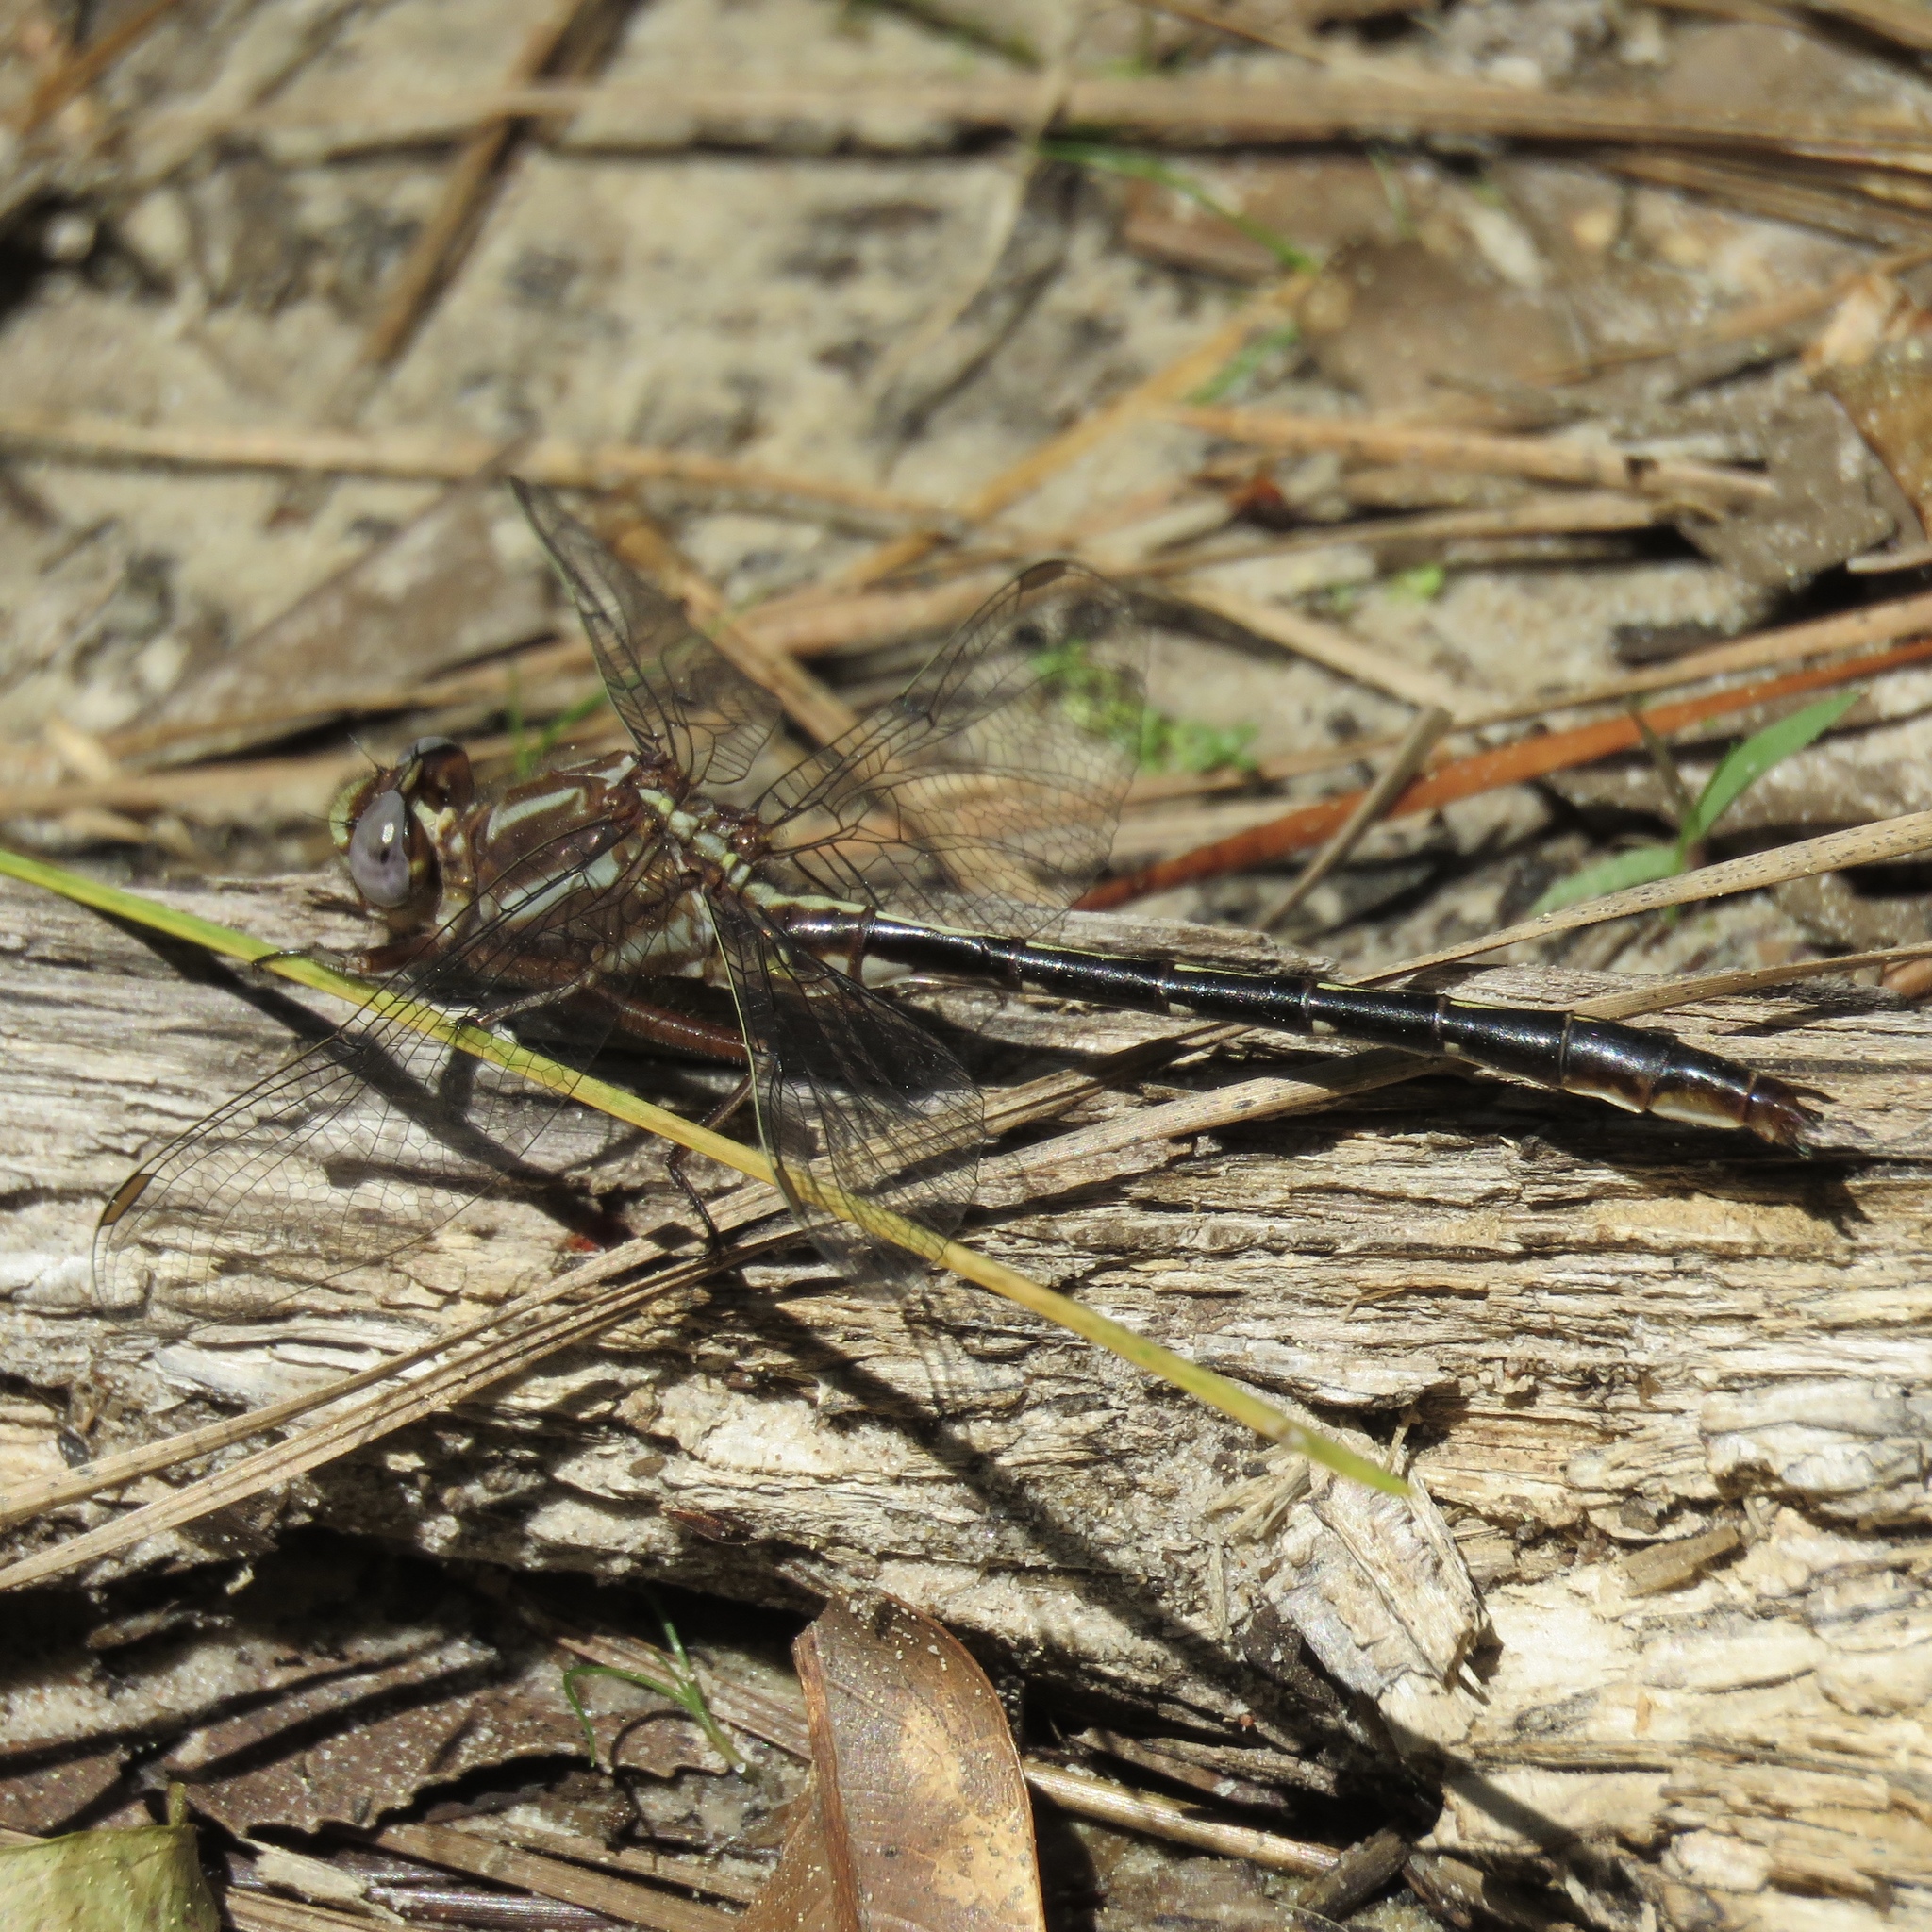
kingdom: Animalia
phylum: Arthropoda
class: Insecta
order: Odonata
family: Gomphidae
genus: Phanogomphus
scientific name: Phanogomphus lividus
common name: Ashy clubtail
